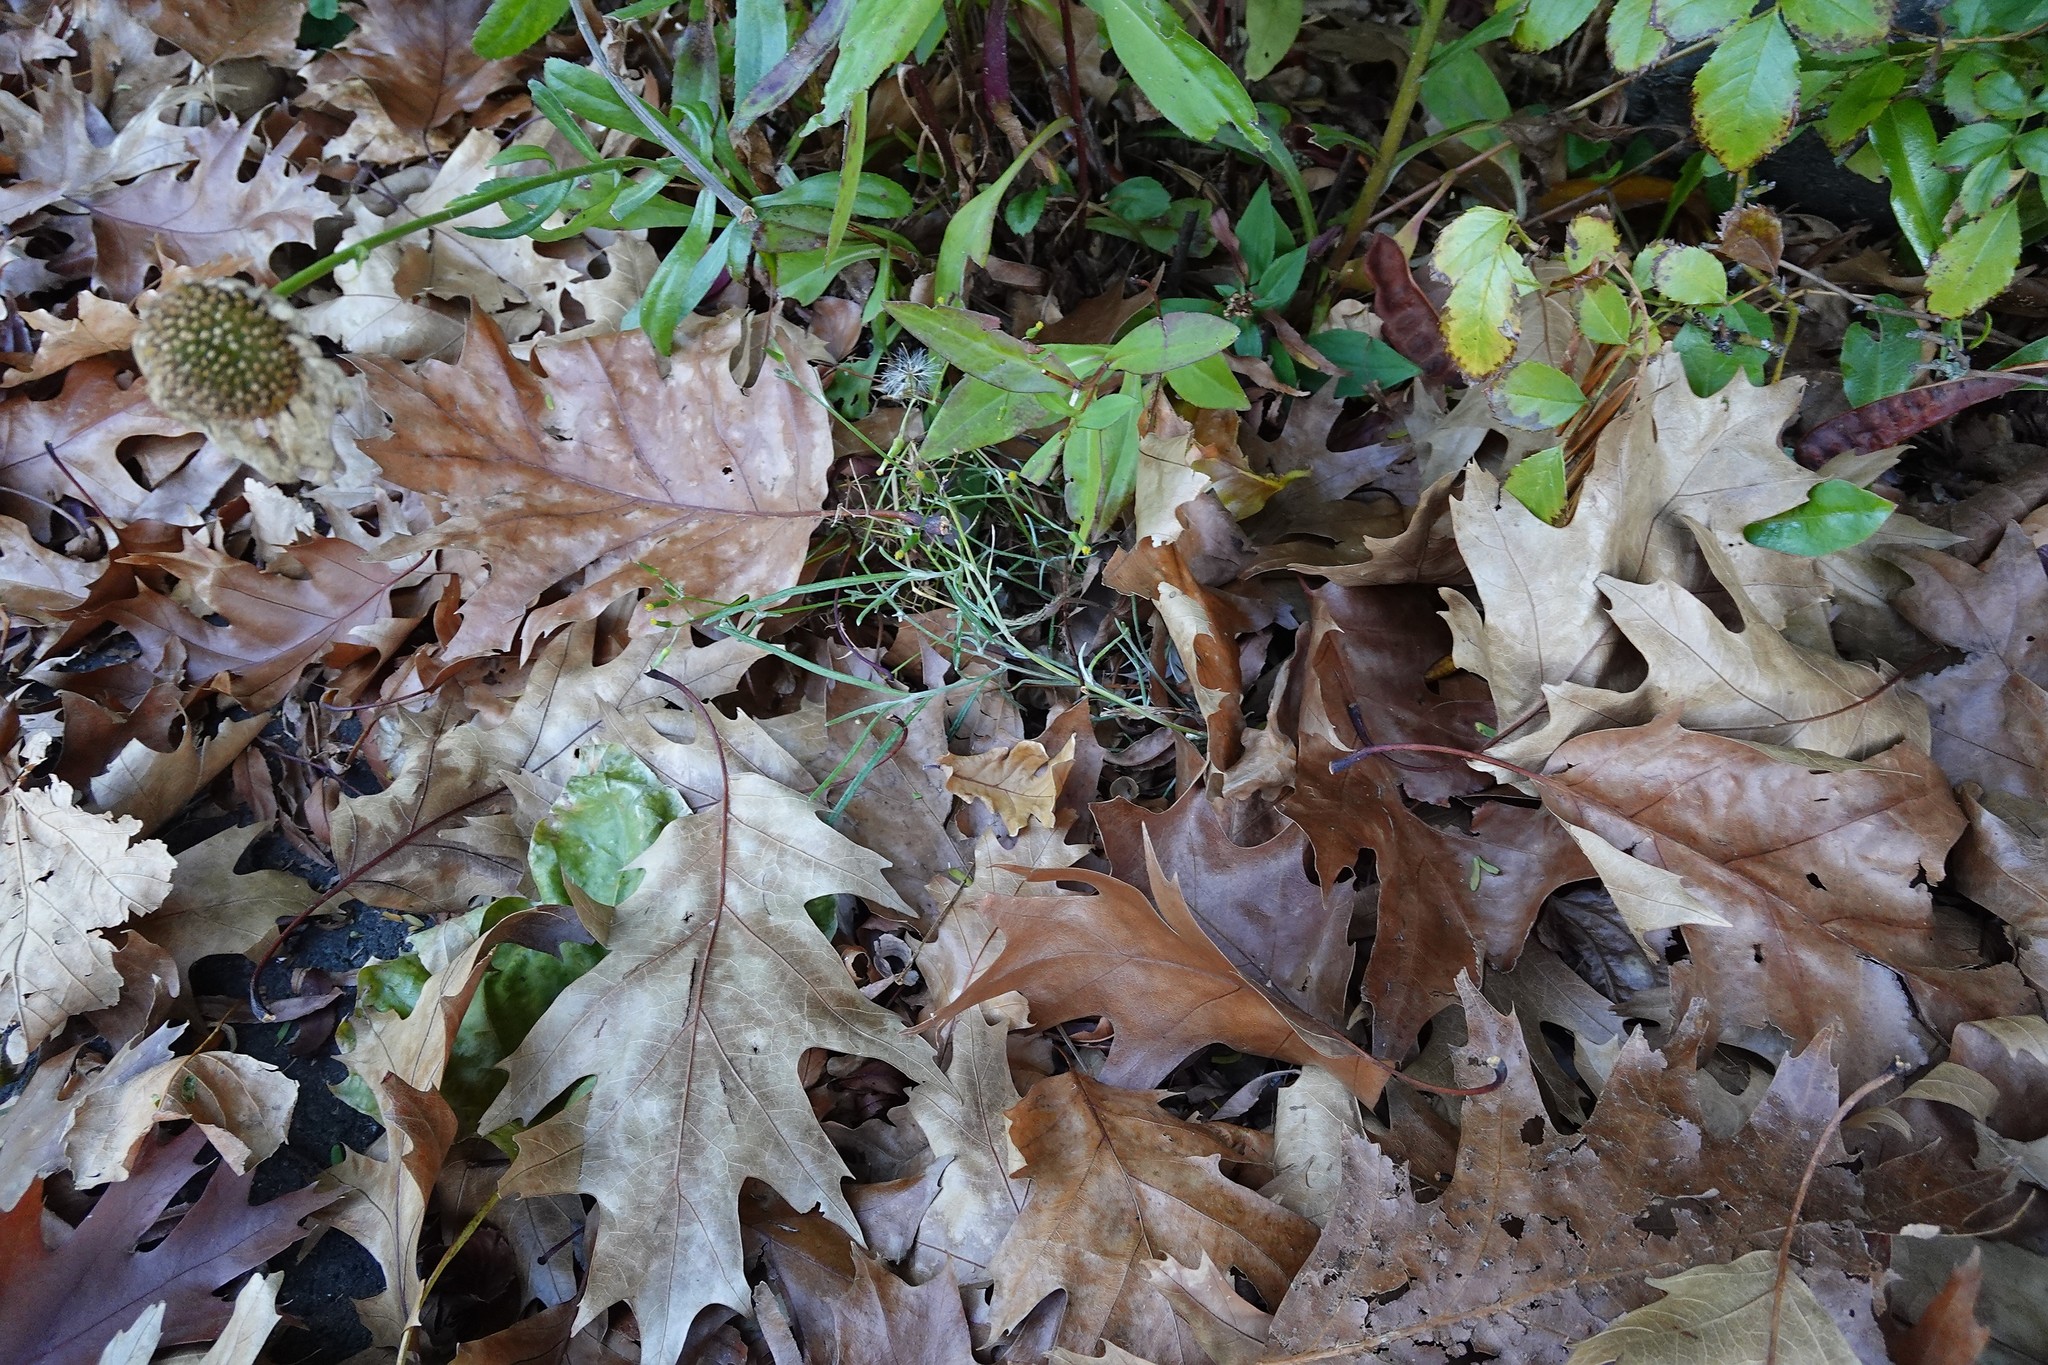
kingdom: Plantae
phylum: Tracheophyta
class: Magnoliopsida
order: Asterales
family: Asteraceae
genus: Senecio
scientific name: Senecio quadridentatus
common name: Cotton fireweed
